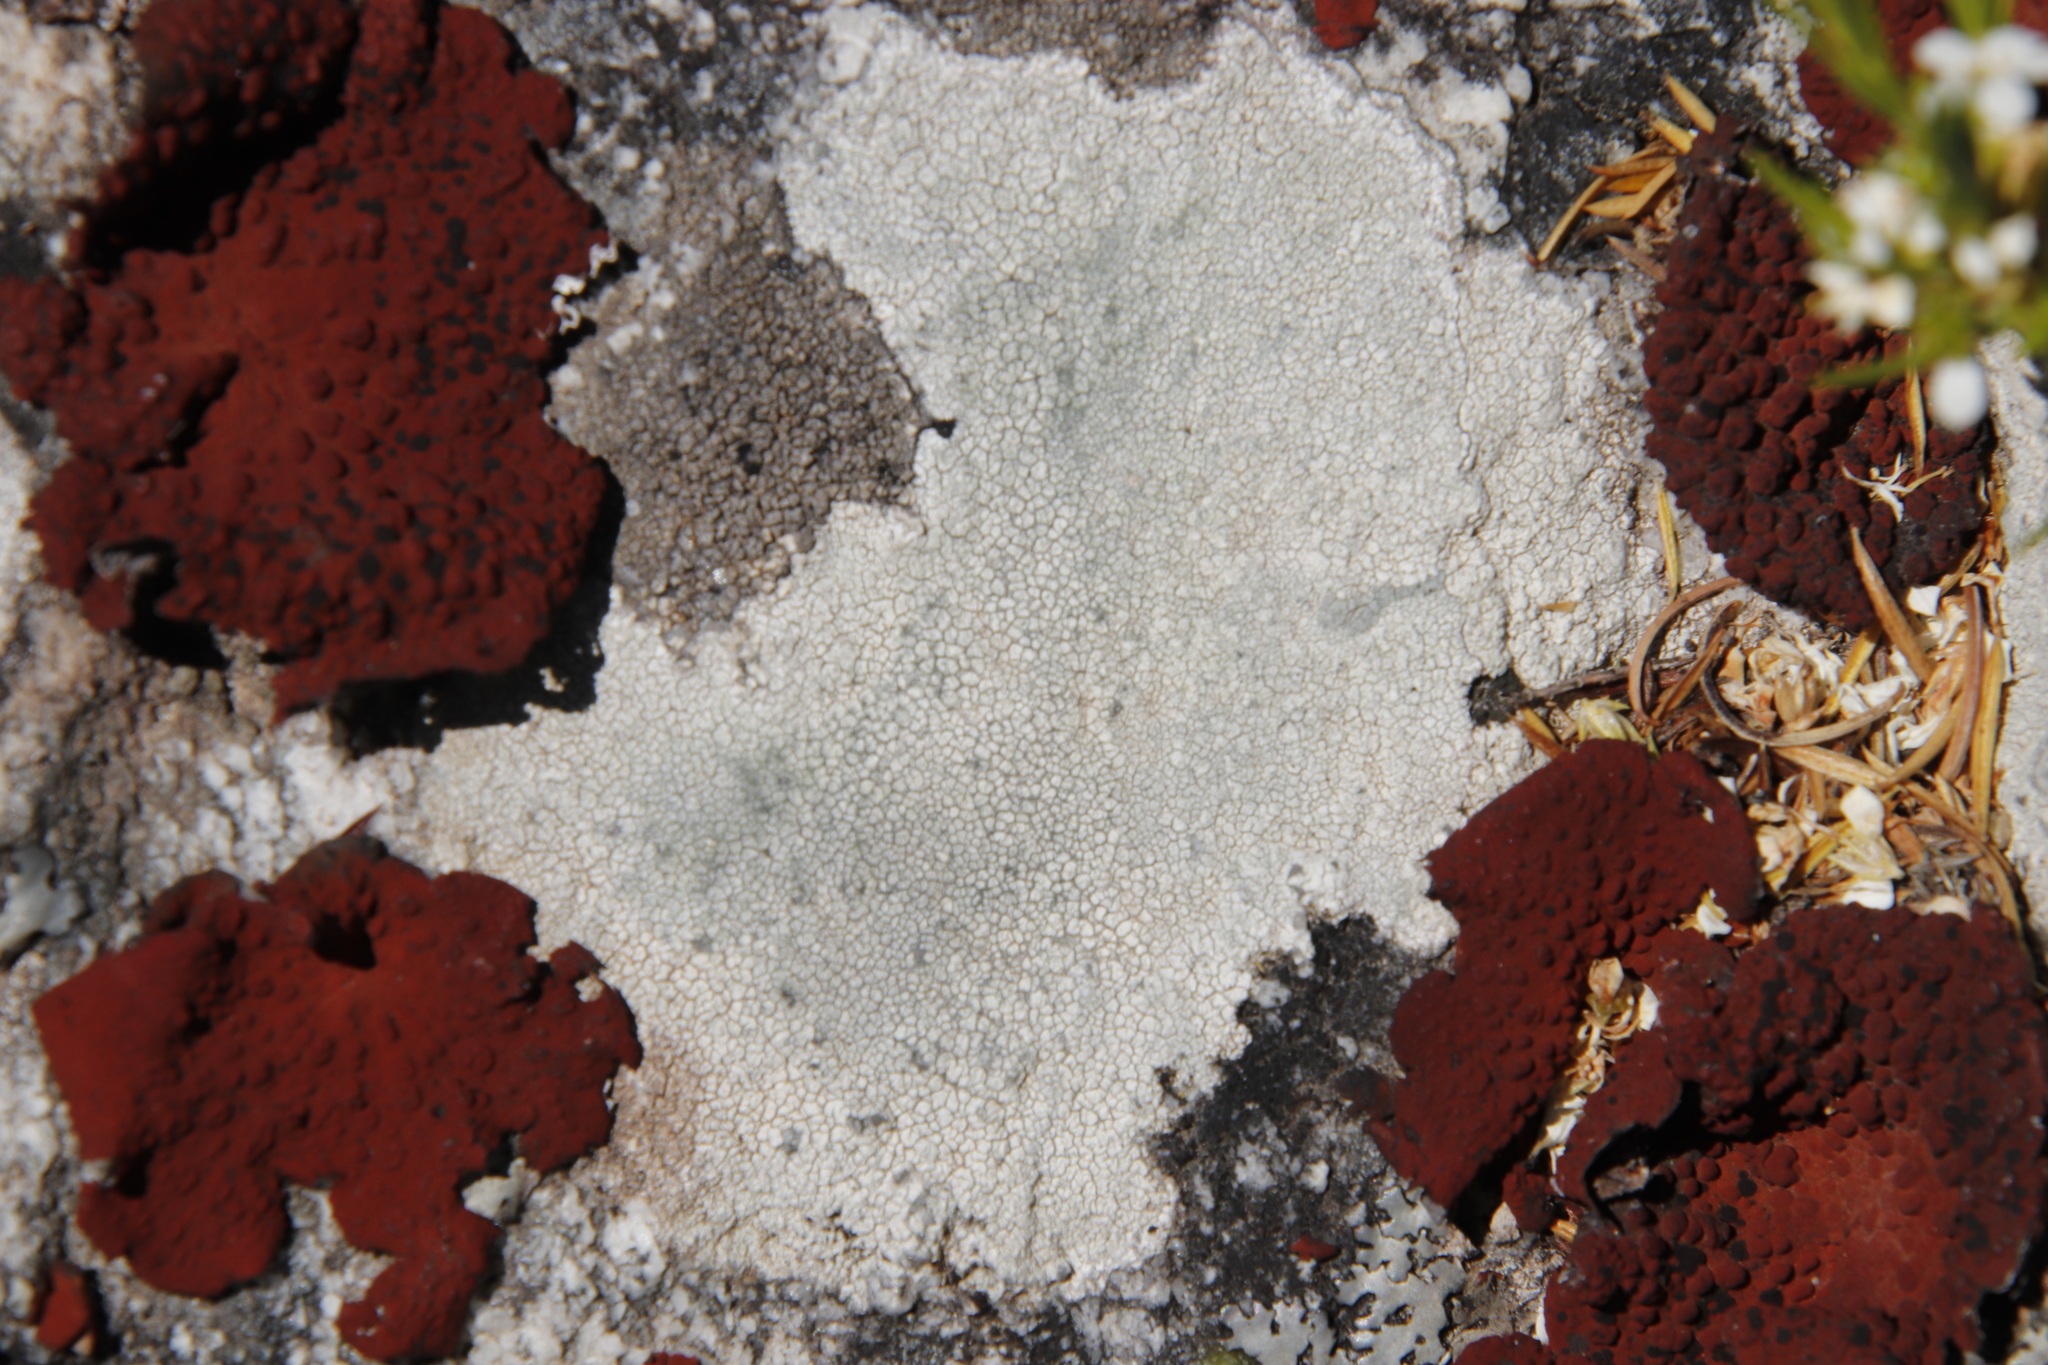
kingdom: Fungi
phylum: Ascomycota
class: Lecanoromycetes
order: Umbilicariales
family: Umbilicariaceae
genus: Lasallia
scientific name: Lasallia rubiginosa
